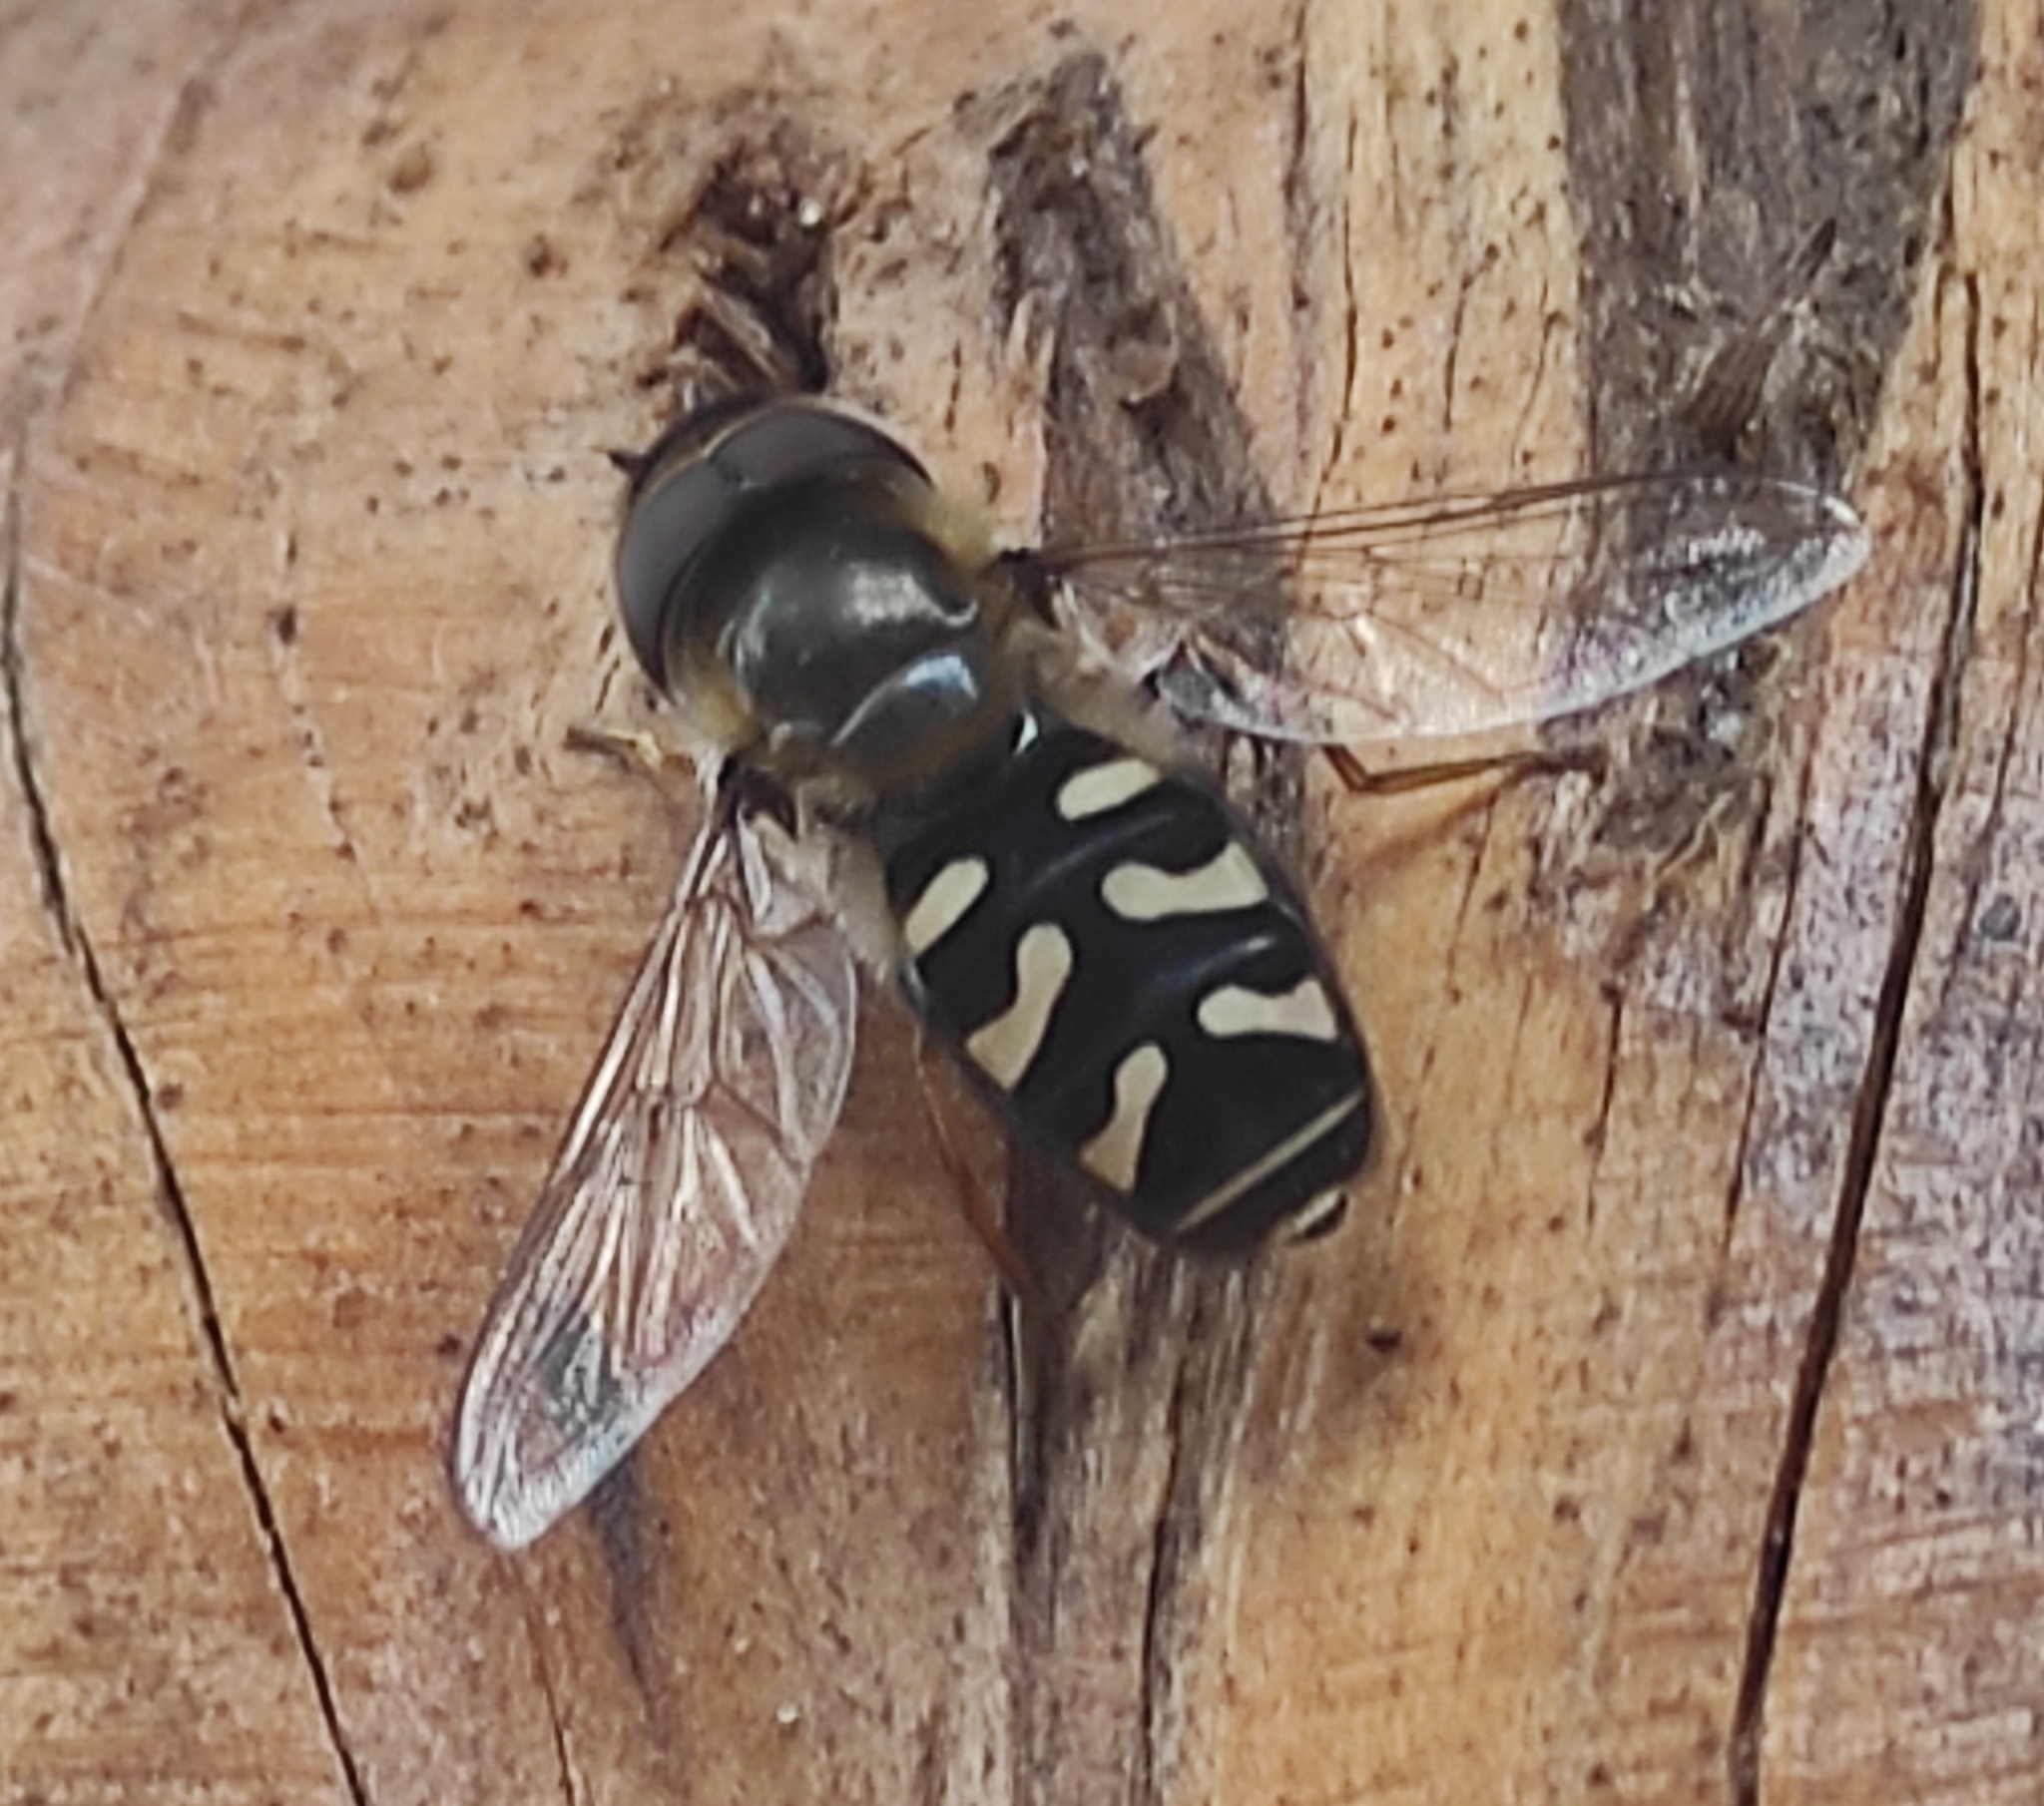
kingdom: Animalia
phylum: Arthropoda
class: Insecta
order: Diptera
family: Syrphidae
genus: Scaeva
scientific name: Scaeva pyrastri
